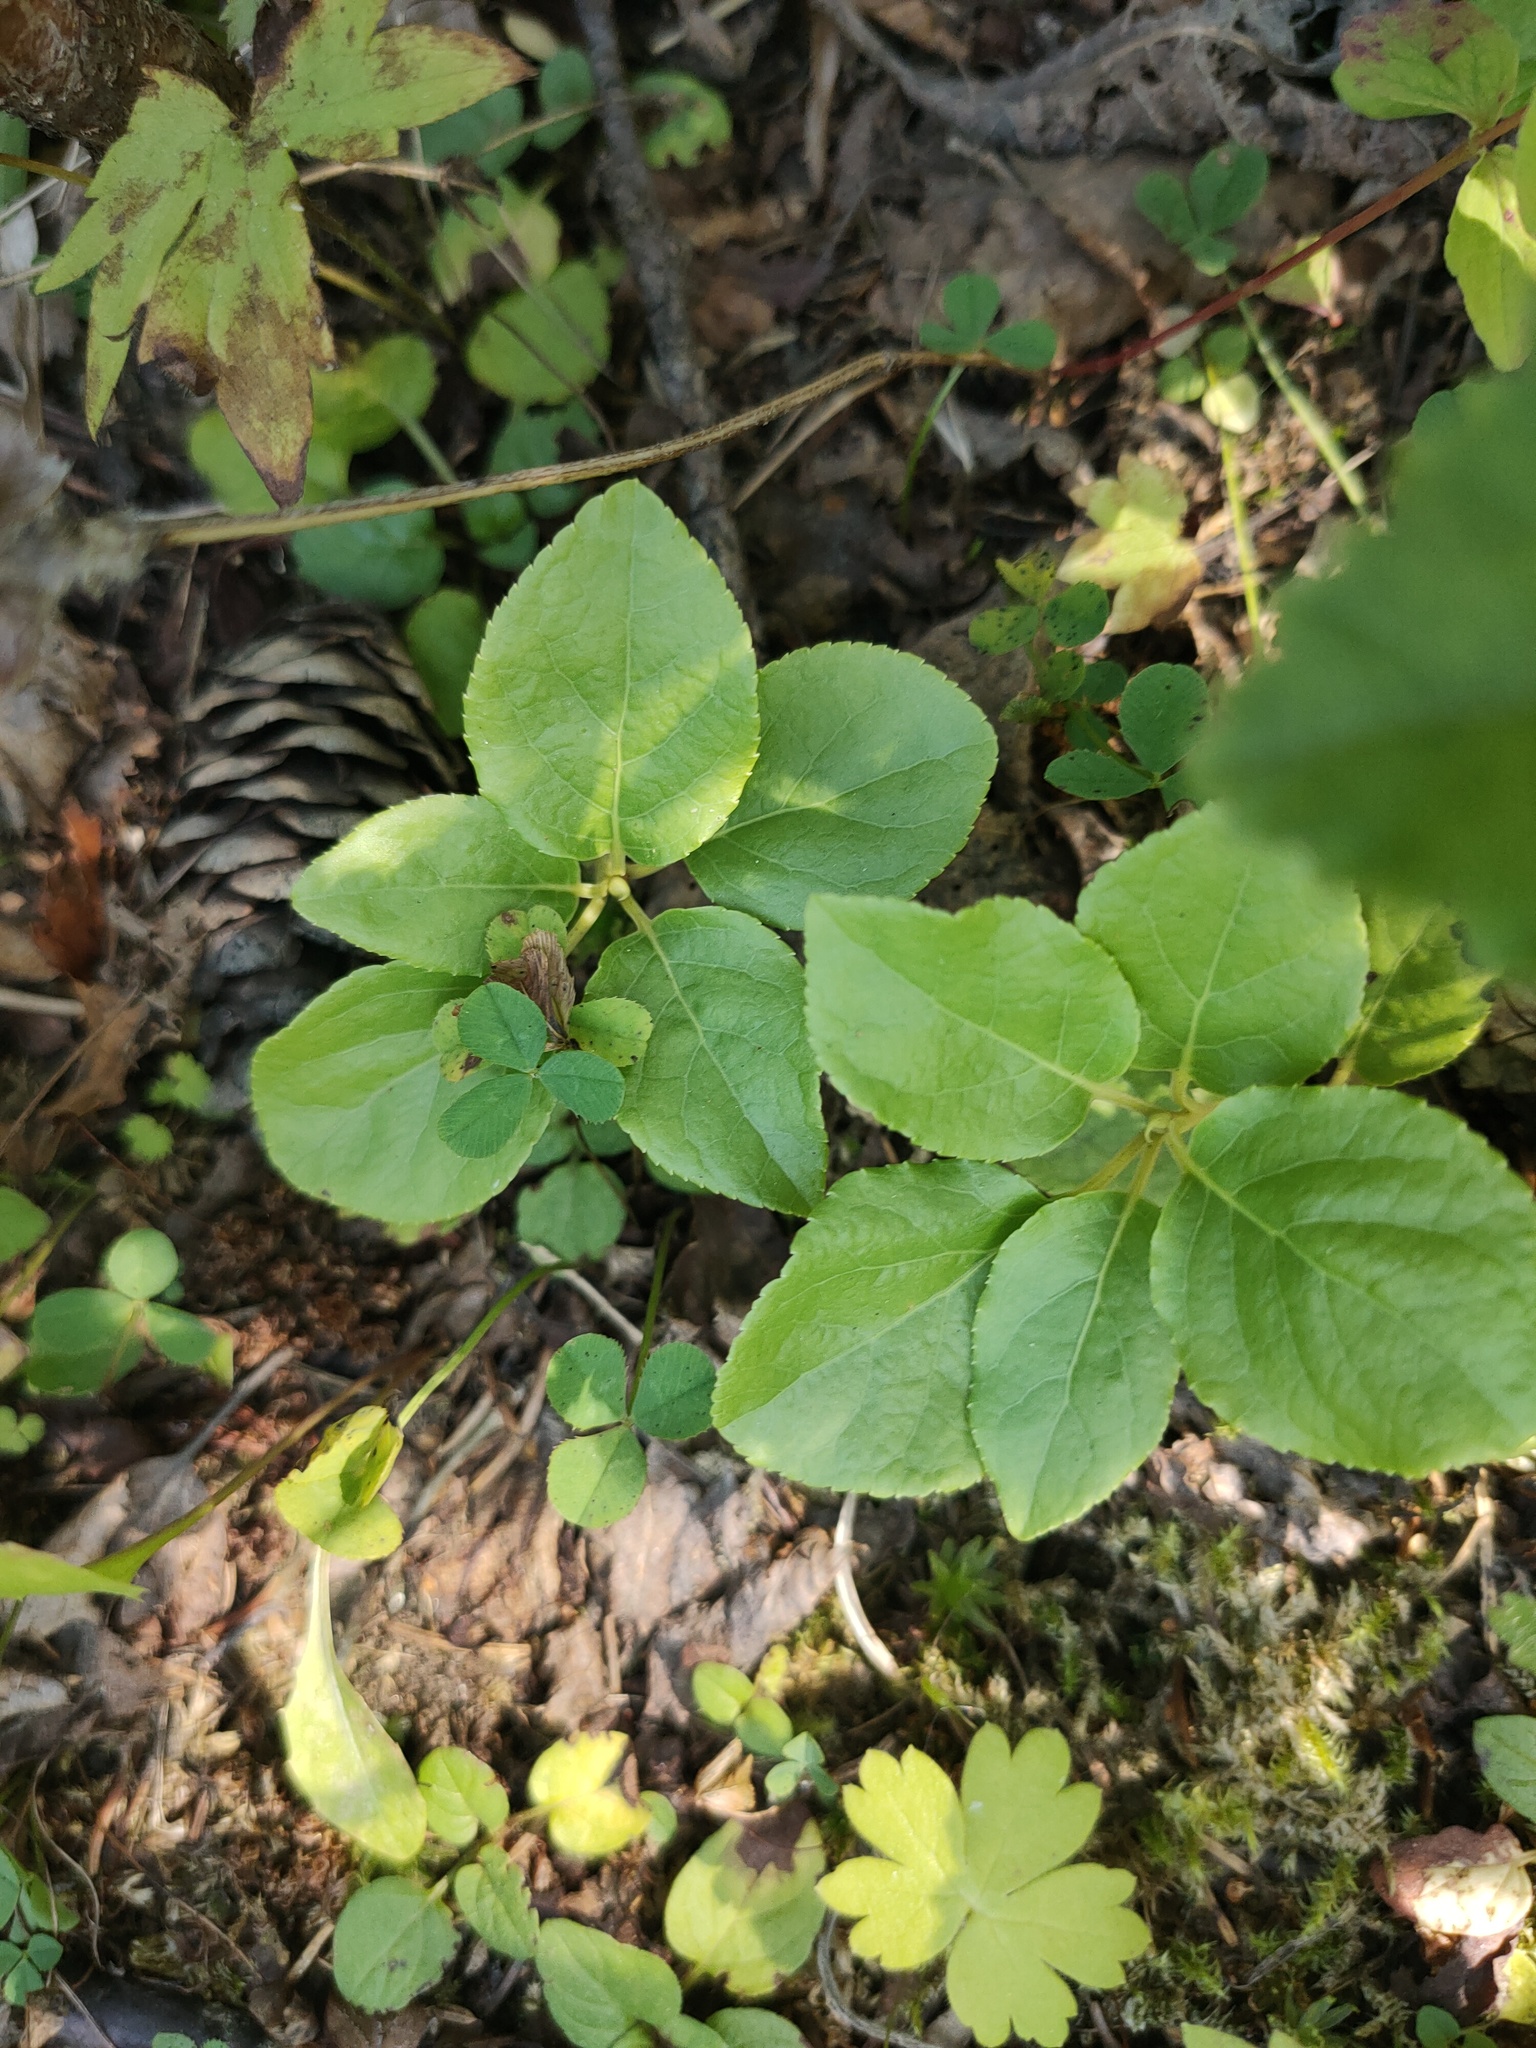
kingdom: Plantae
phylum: Tracheophyta
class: Magnoliopsida
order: Ericales
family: Ericaceae
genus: Orthilia
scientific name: Orthilia secunda
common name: One-sided orthilia
